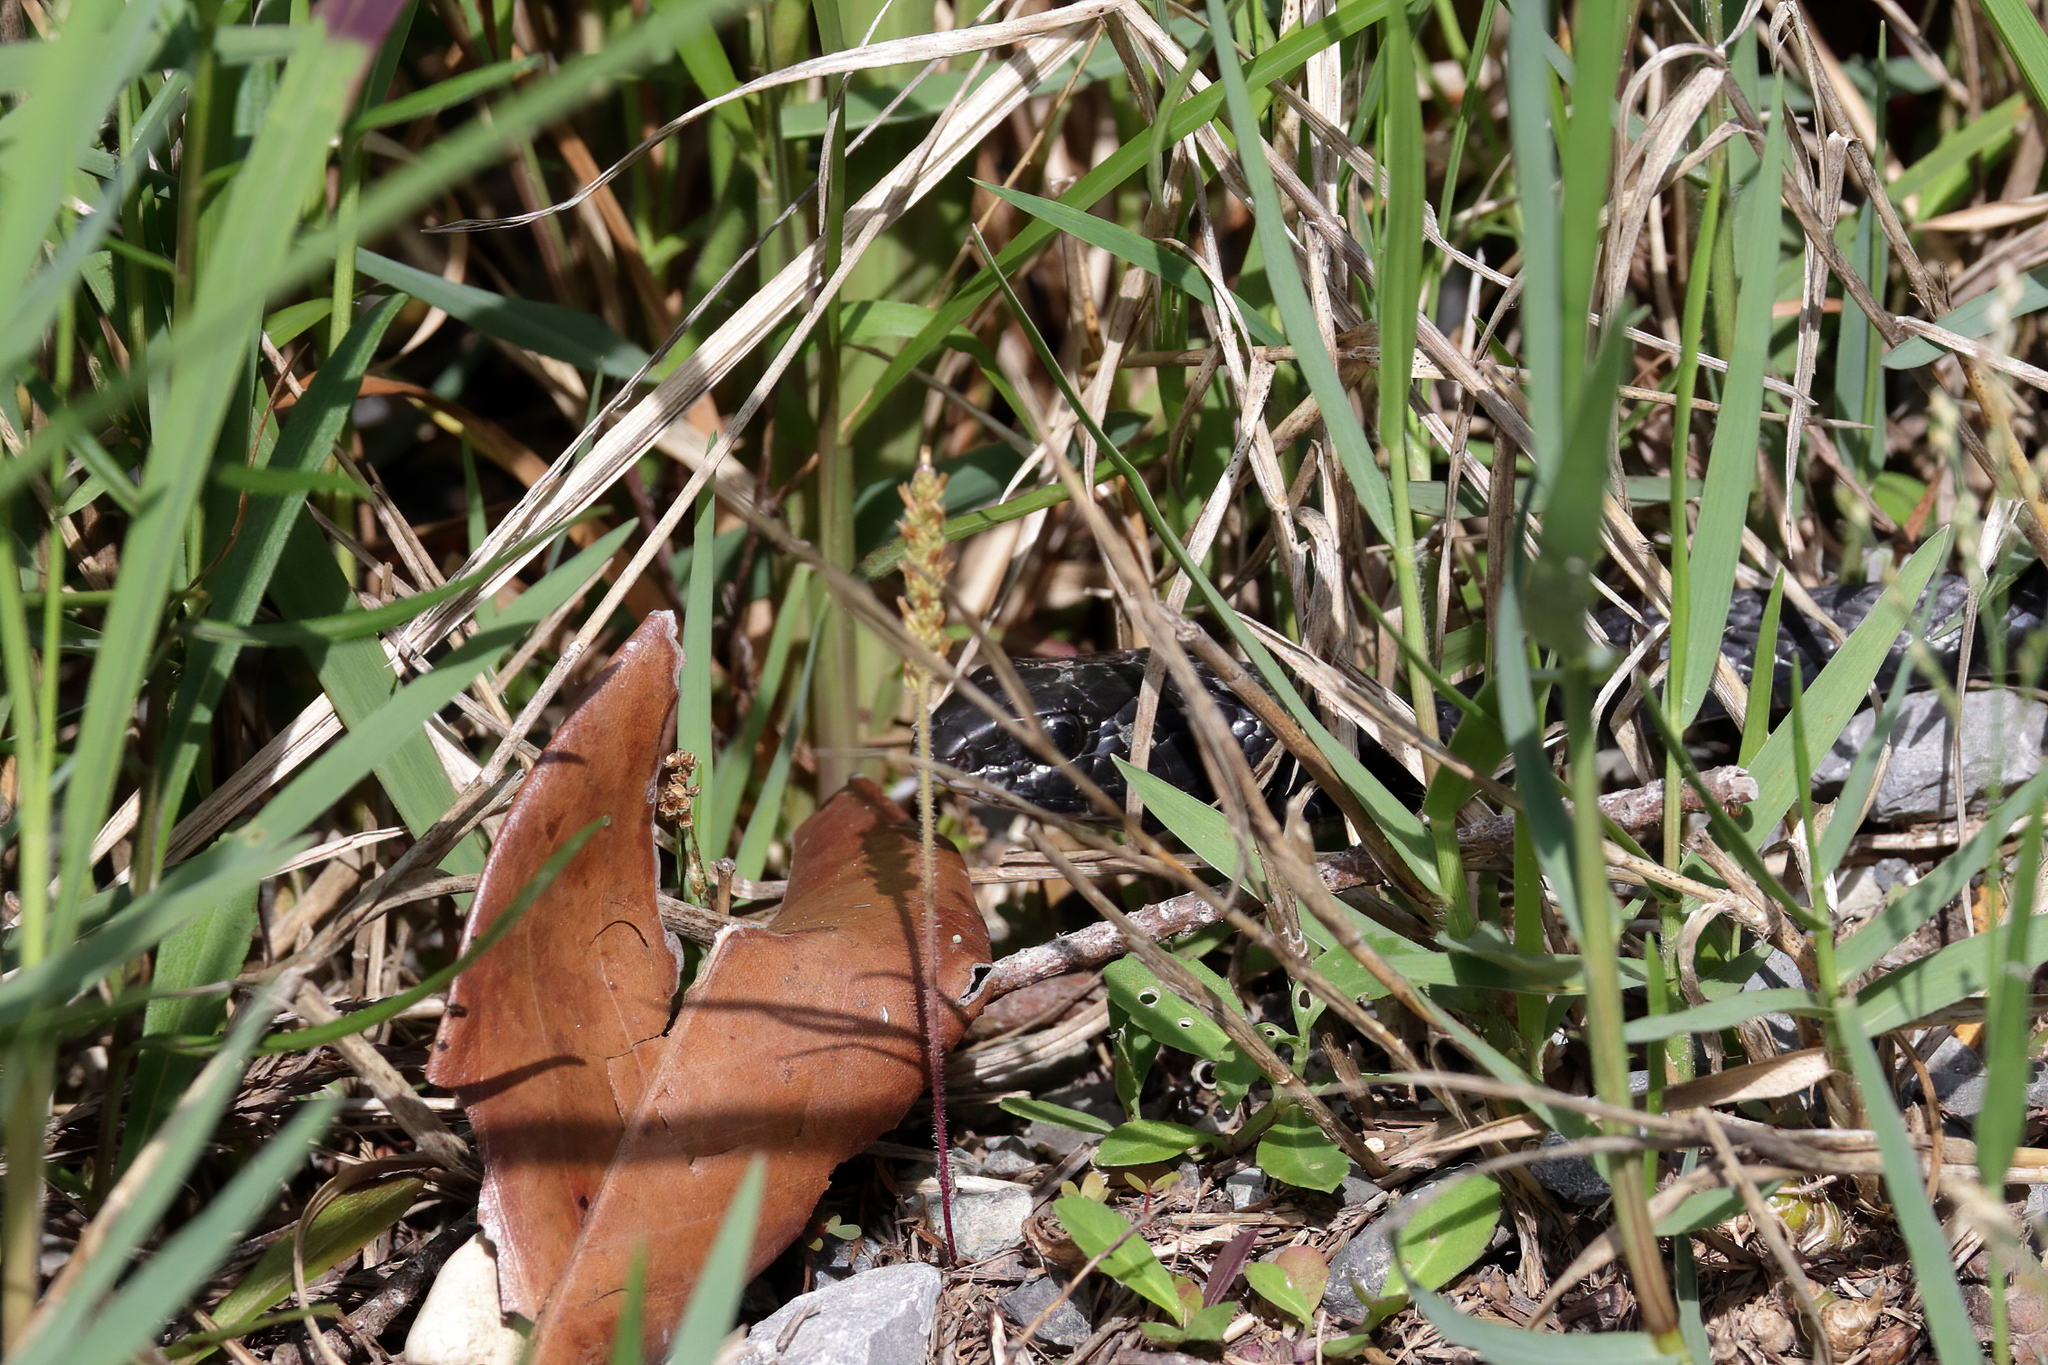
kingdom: Animalia
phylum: Chordata
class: Squamata
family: Colubridae
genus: Coluber
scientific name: Coluber constrictor
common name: Eastern racer
